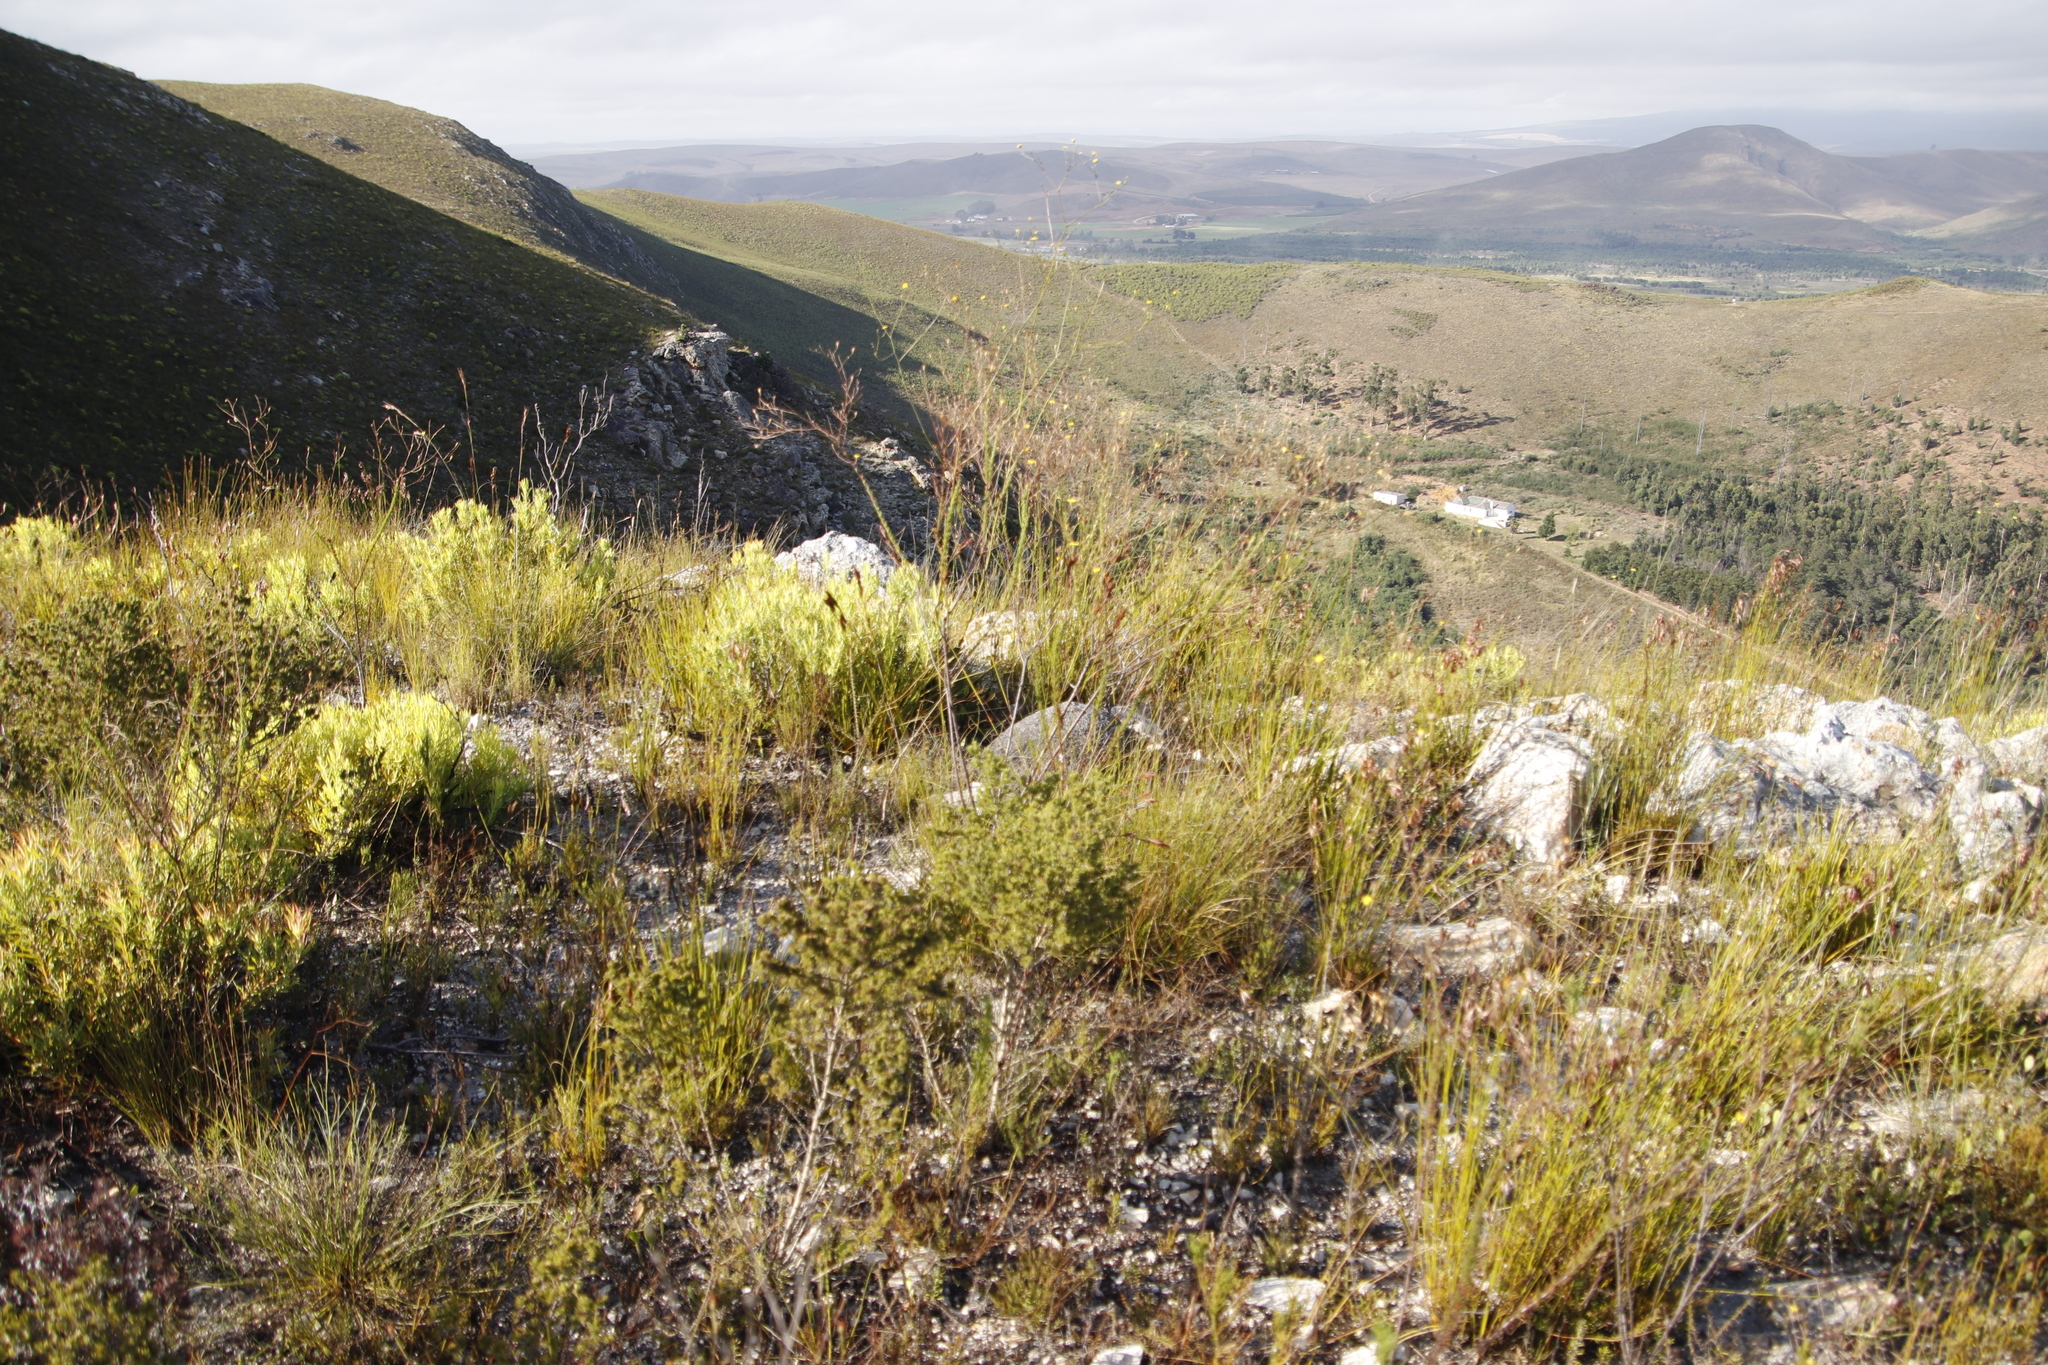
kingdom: Plantae
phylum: Tracheophyta
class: Magnoliopsida
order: Proteales
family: Proteaceae
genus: Leucadendron
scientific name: Leucadendron salignum
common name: Common sunshine conebush
